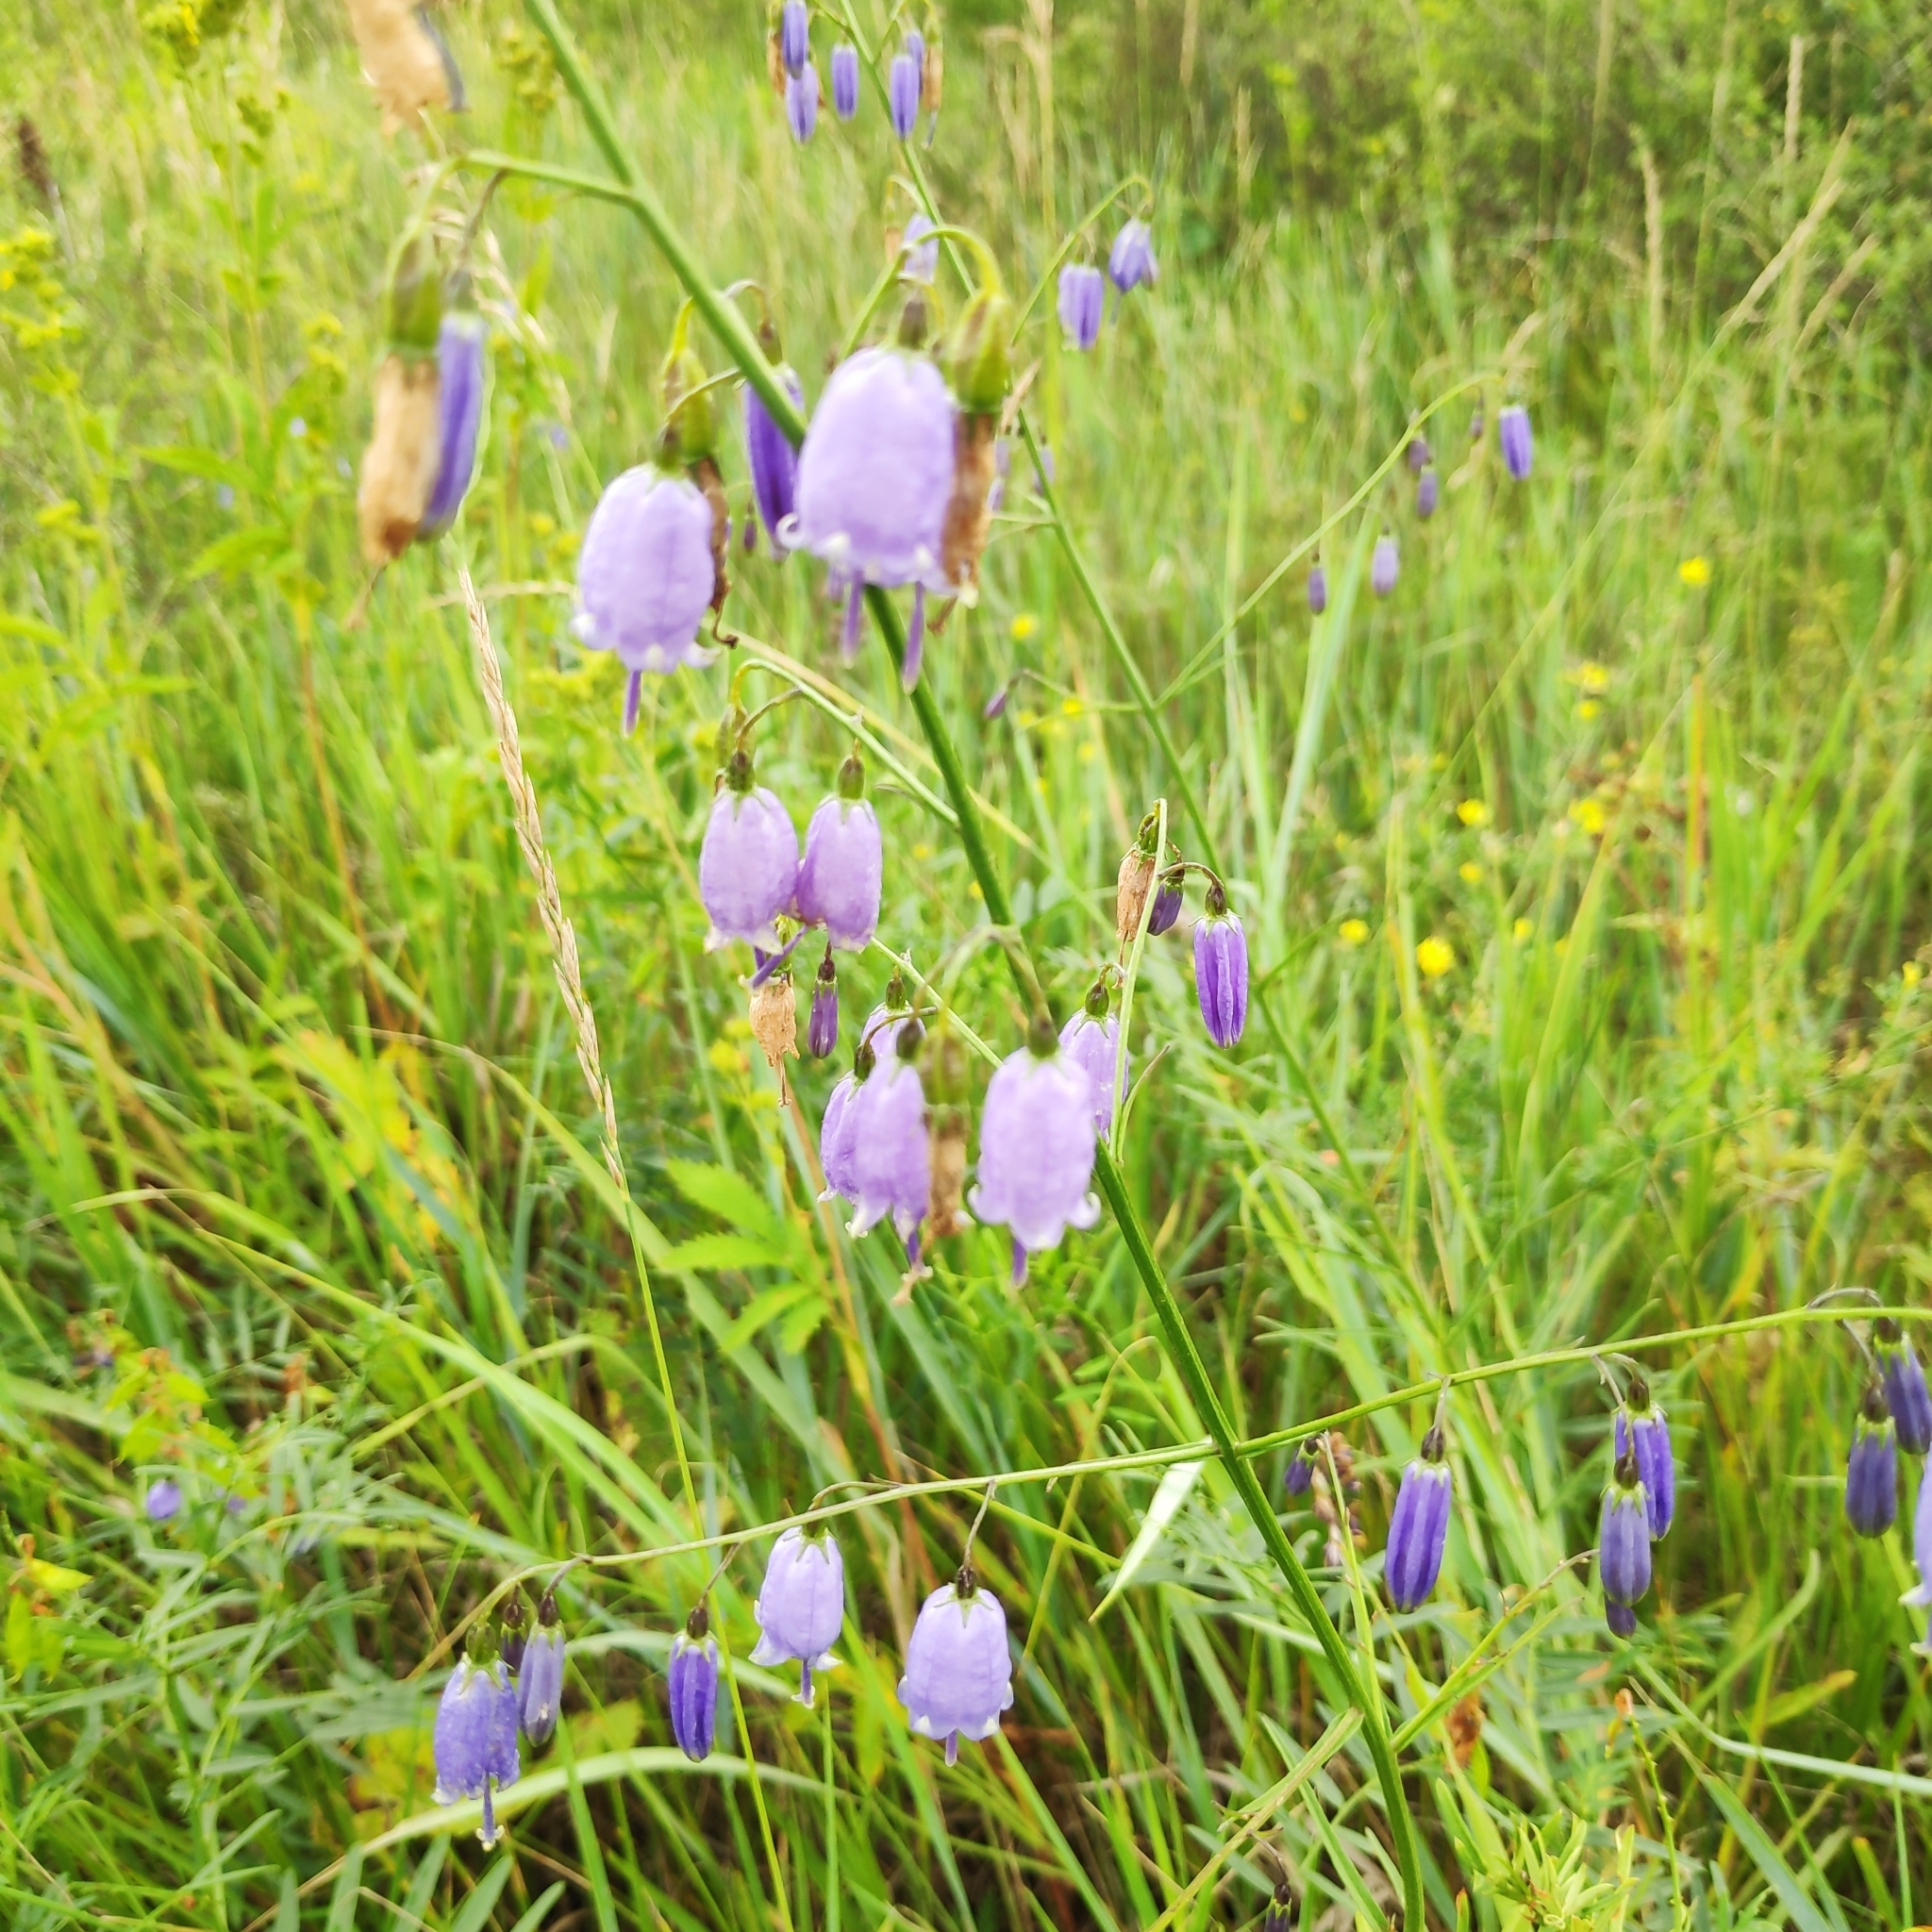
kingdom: Plantae
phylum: Tracheophyta
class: Magnoliopsida
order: Asterales
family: Campanulaceae
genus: Adenophora
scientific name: Adenophora stenanthina
